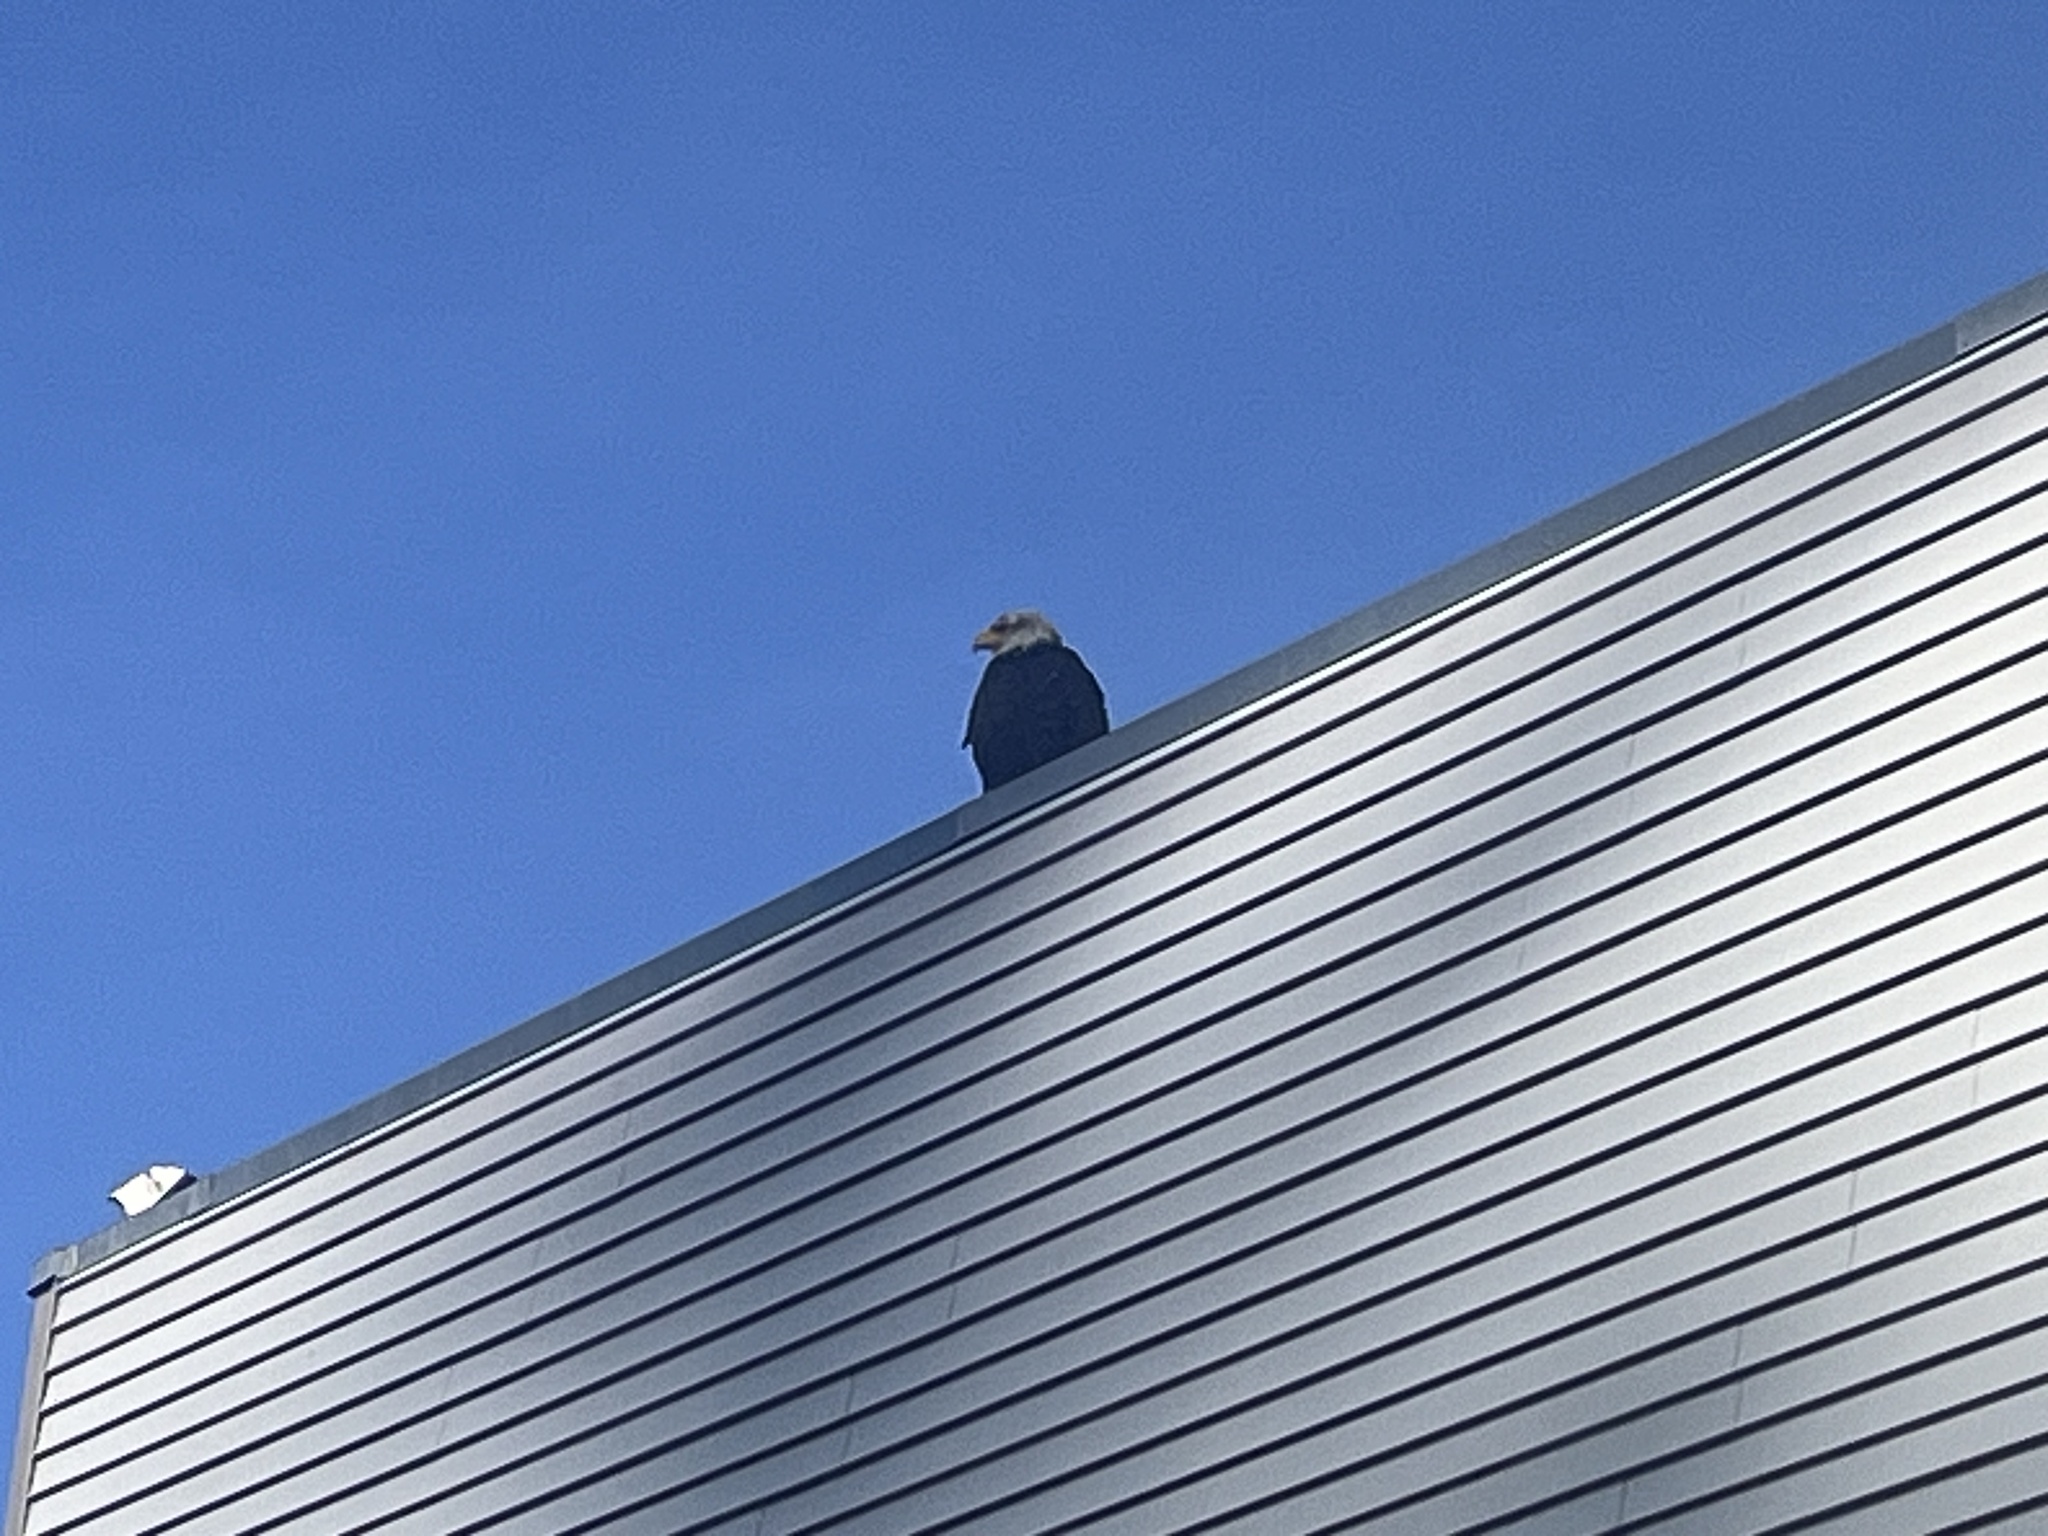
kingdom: Animalia
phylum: Chordata
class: Aves
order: Accipitriformes
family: Accipitridae
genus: Haliaeetus
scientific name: Haliaeetus leucocephalus
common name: Bald eagle
